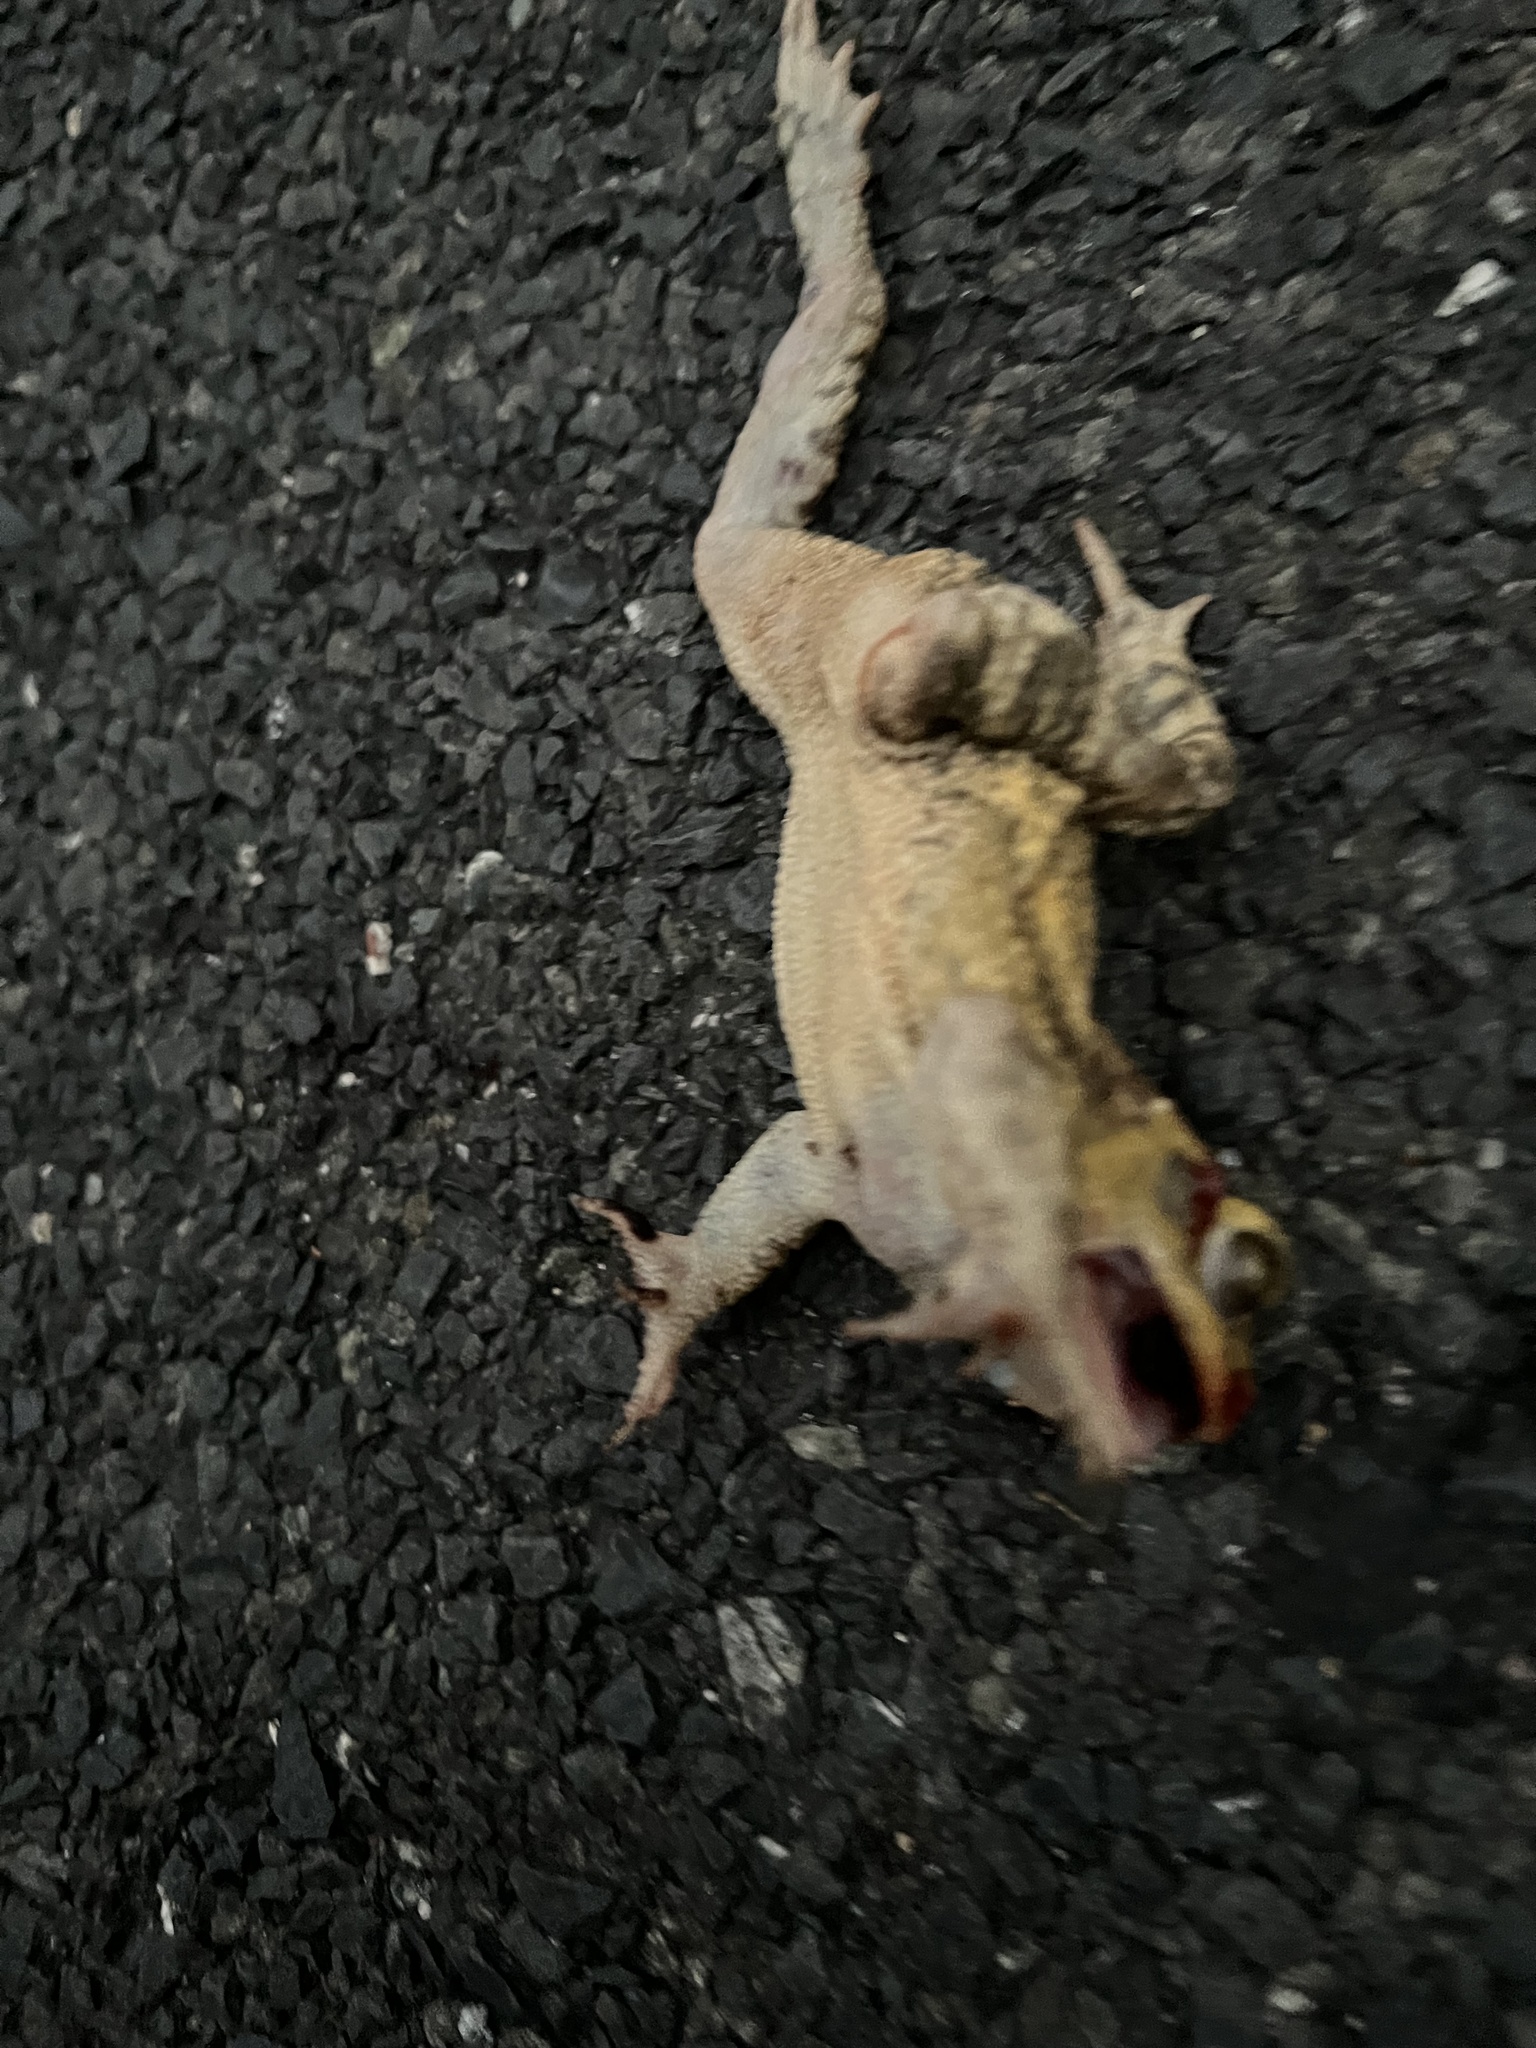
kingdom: Animalia
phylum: Chordata
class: Amphibia
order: Anura
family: Bufonidae
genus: Incilius
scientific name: Incilius nebulifer
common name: Gulf coast toad
